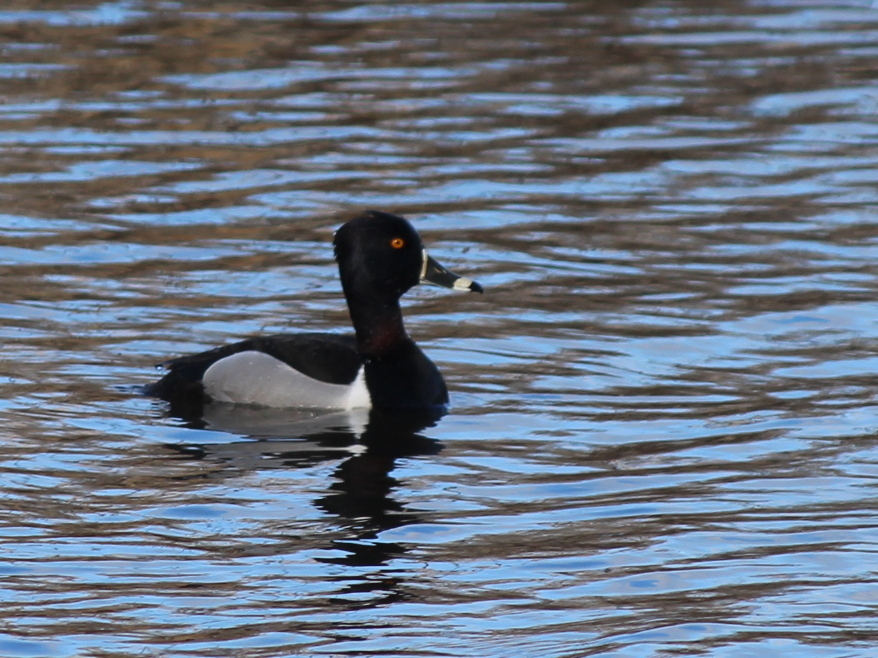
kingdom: Animalia
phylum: Chordata
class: Aves
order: Anseriformes
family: Anatidae
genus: Aythya
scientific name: Aythya collaris
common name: Ring-necked duck
